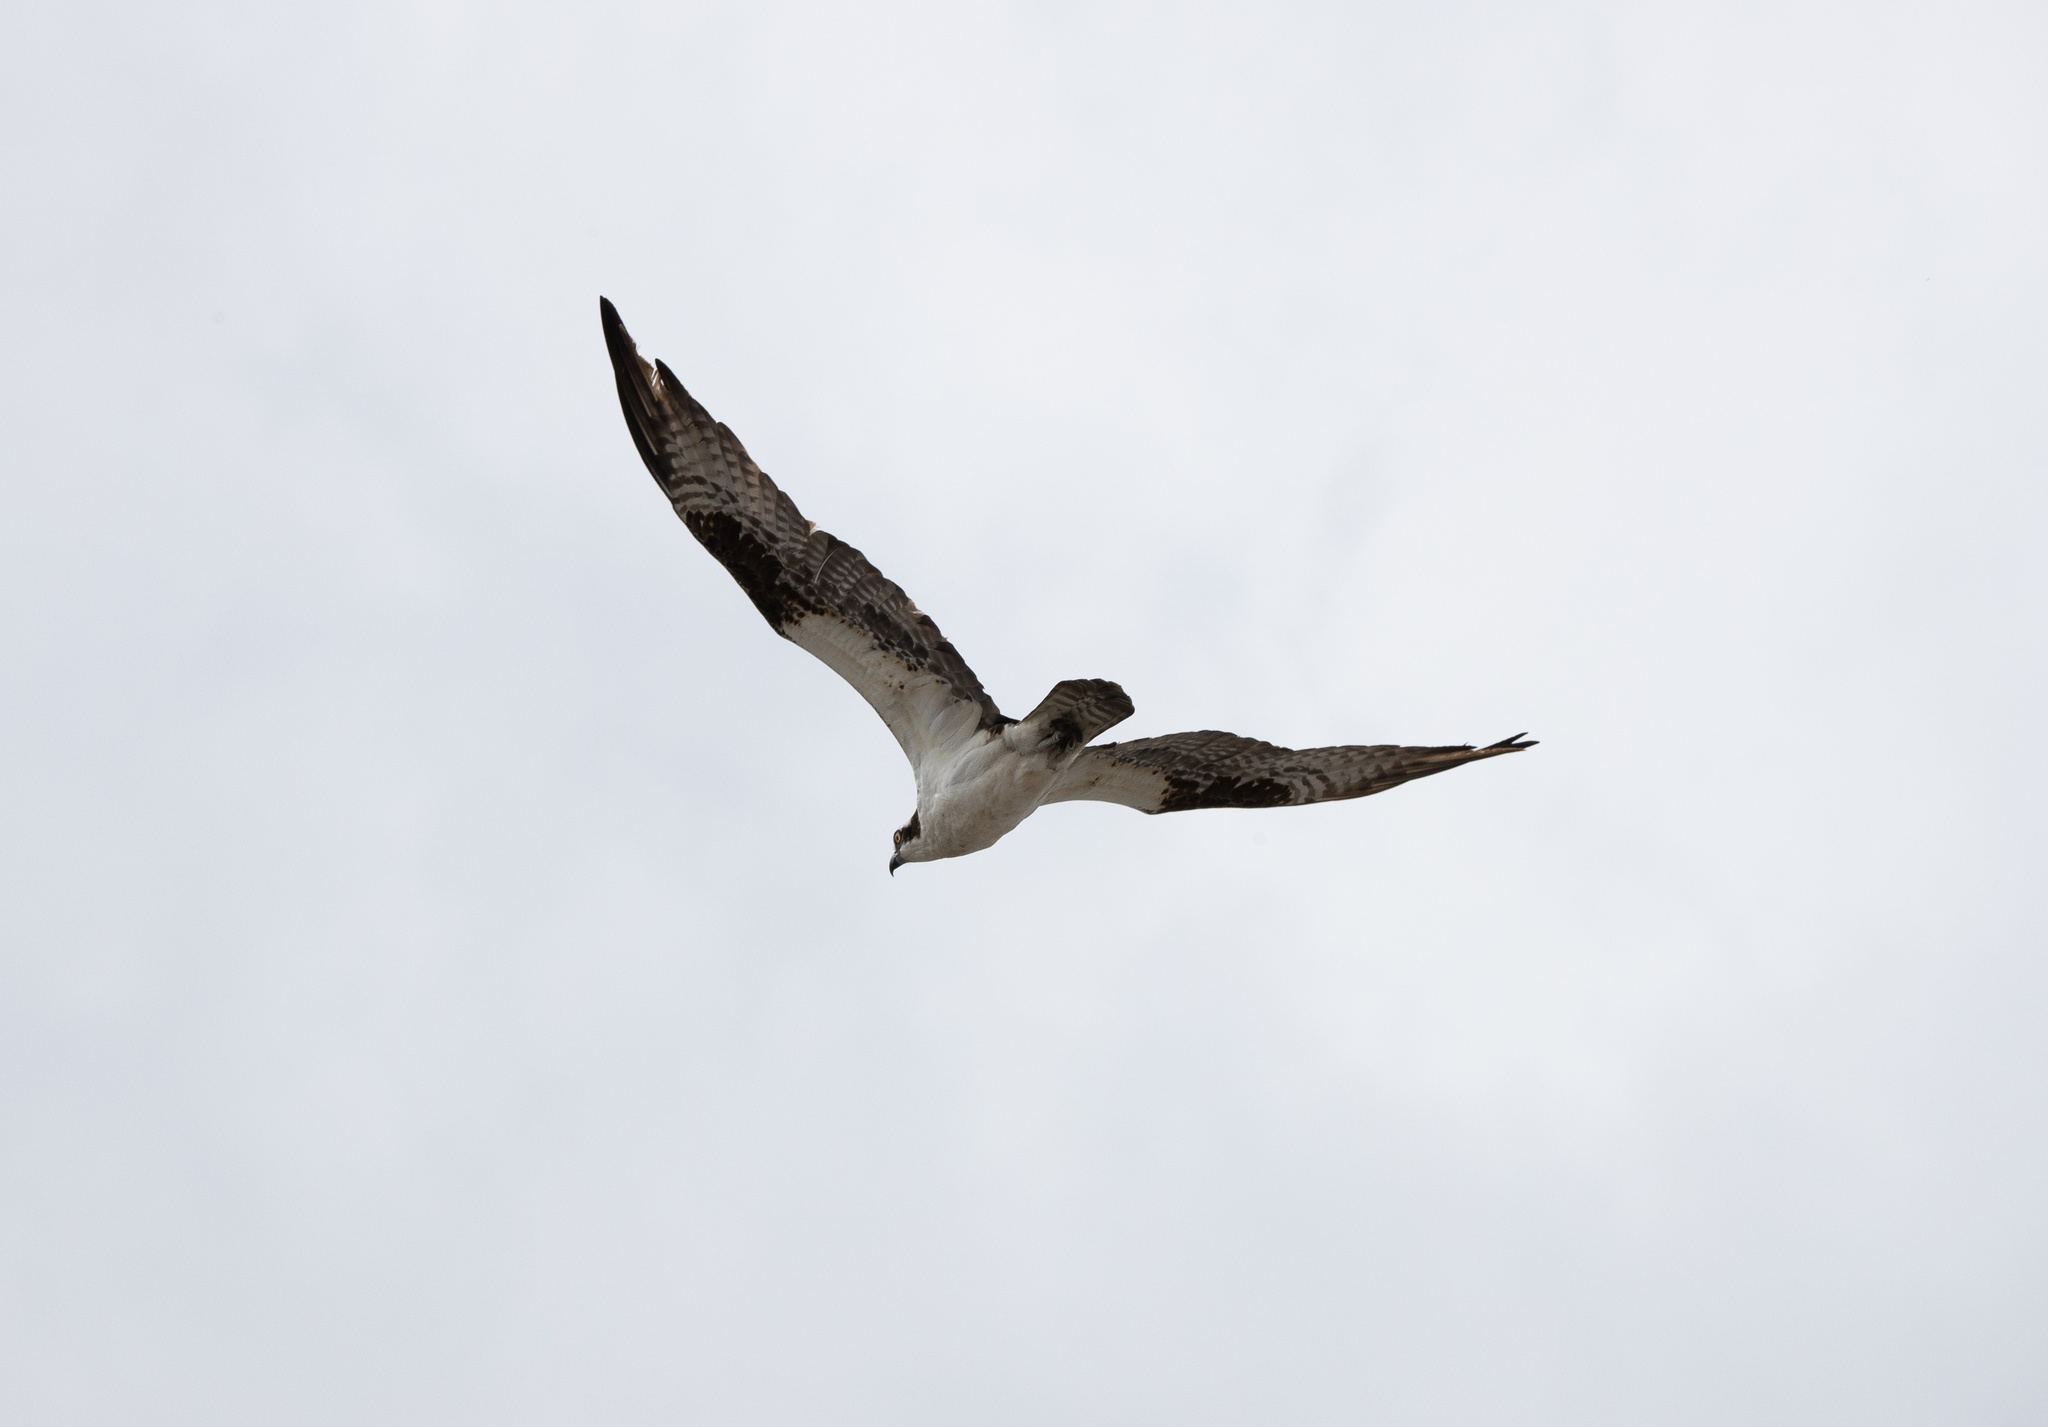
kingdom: Animalia
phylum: Chordata
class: Aves
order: Accipitriformes
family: Pandionidae
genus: Pandion
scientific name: Pandion haliaetus
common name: Osprey
